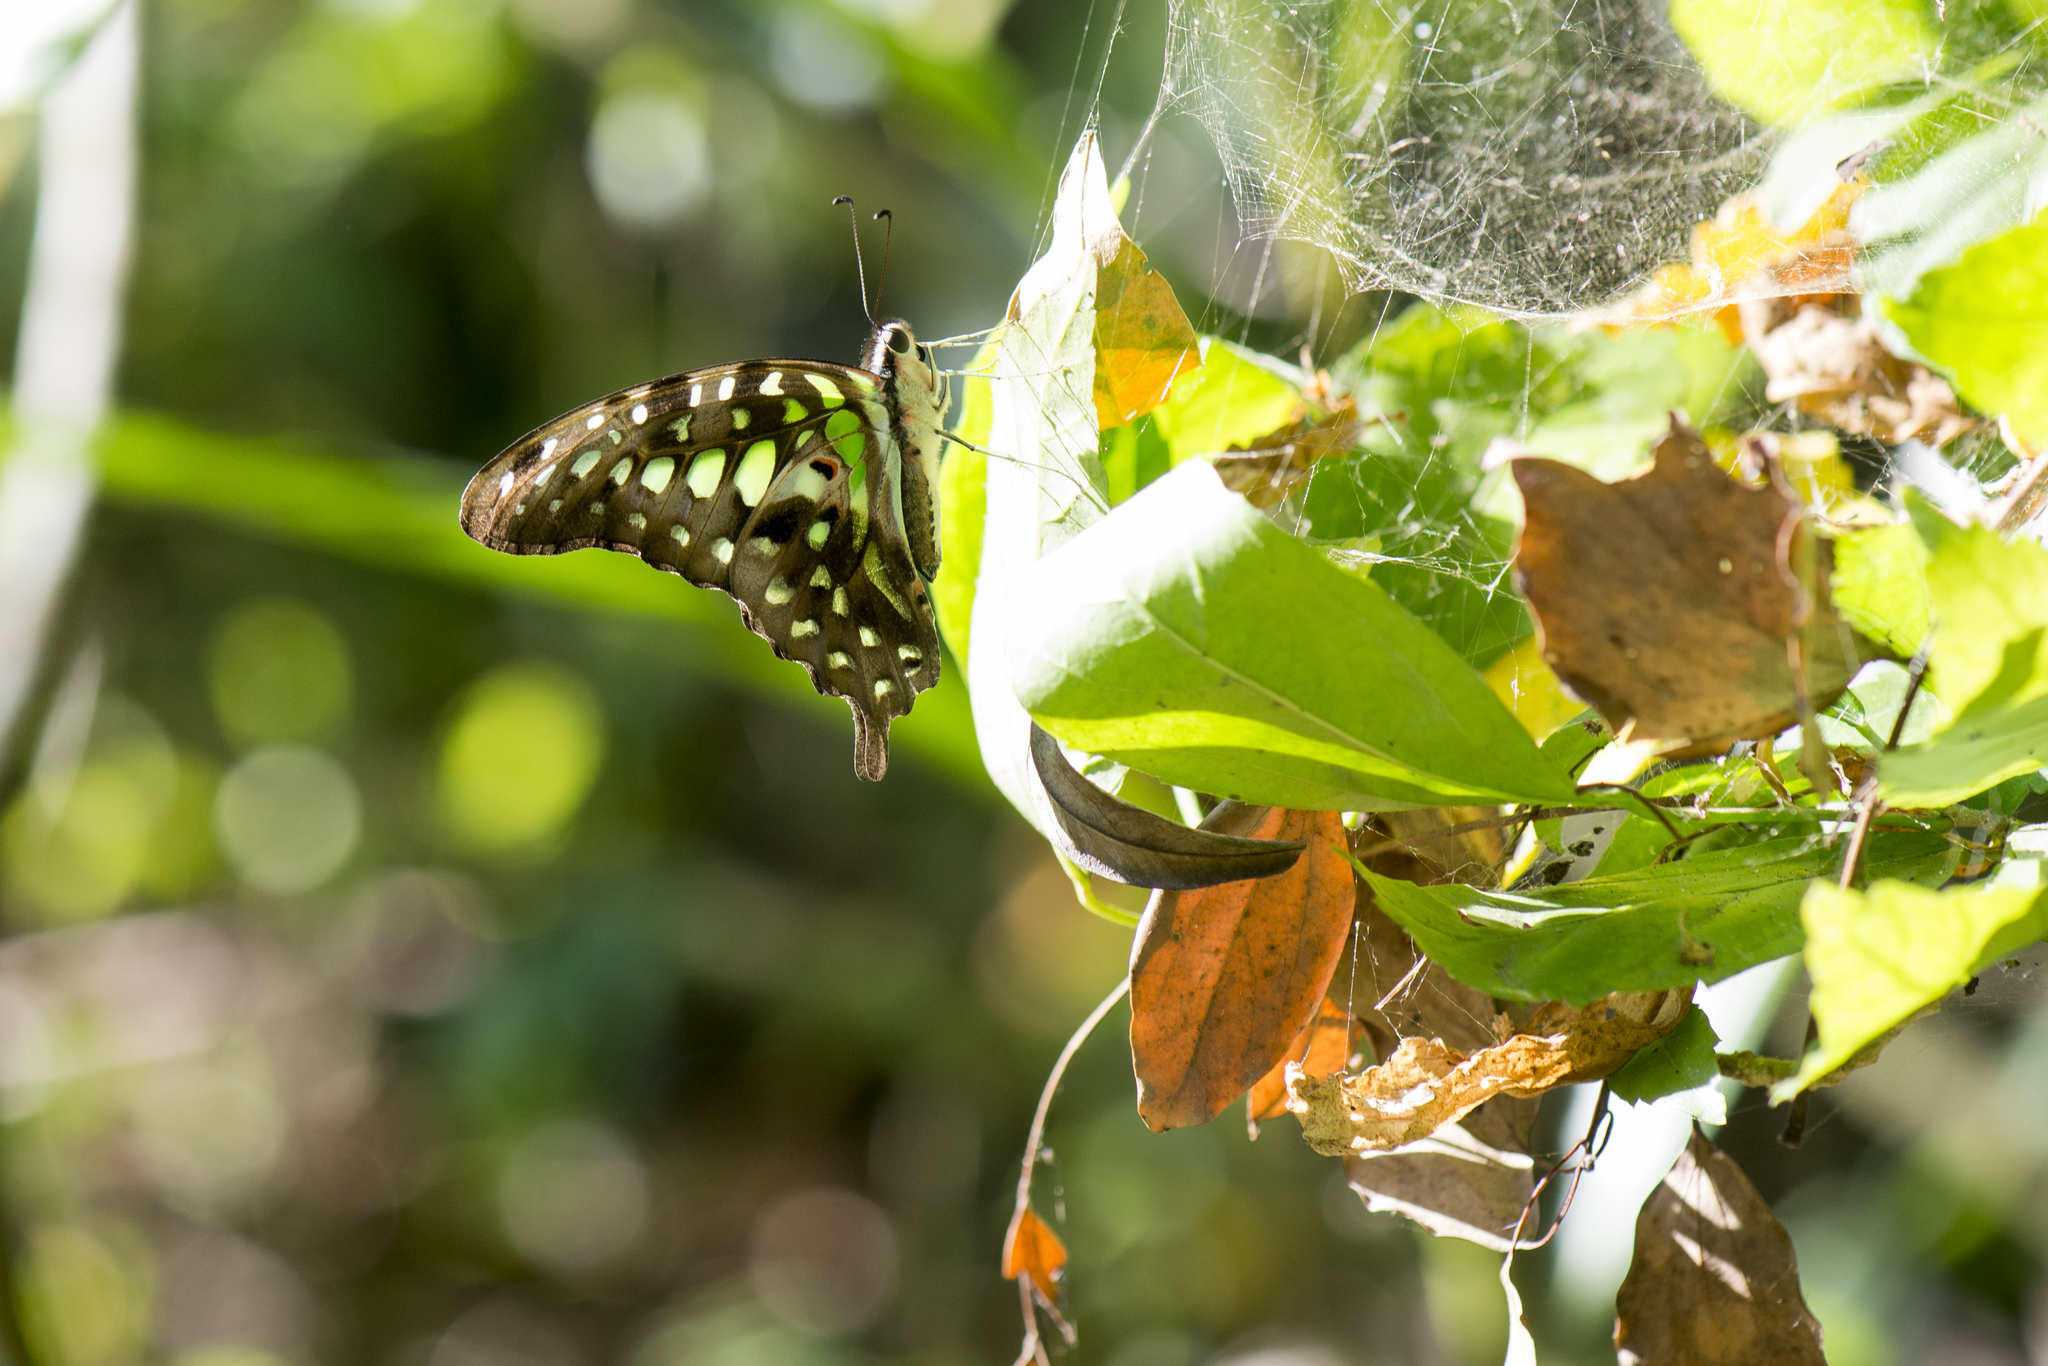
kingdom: Animalia
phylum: Arthropoda
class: Insecta
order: Lepidoptera
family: Papilionidae
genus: Graphium
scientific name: Graphium agamemnon
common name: Tailed jay
